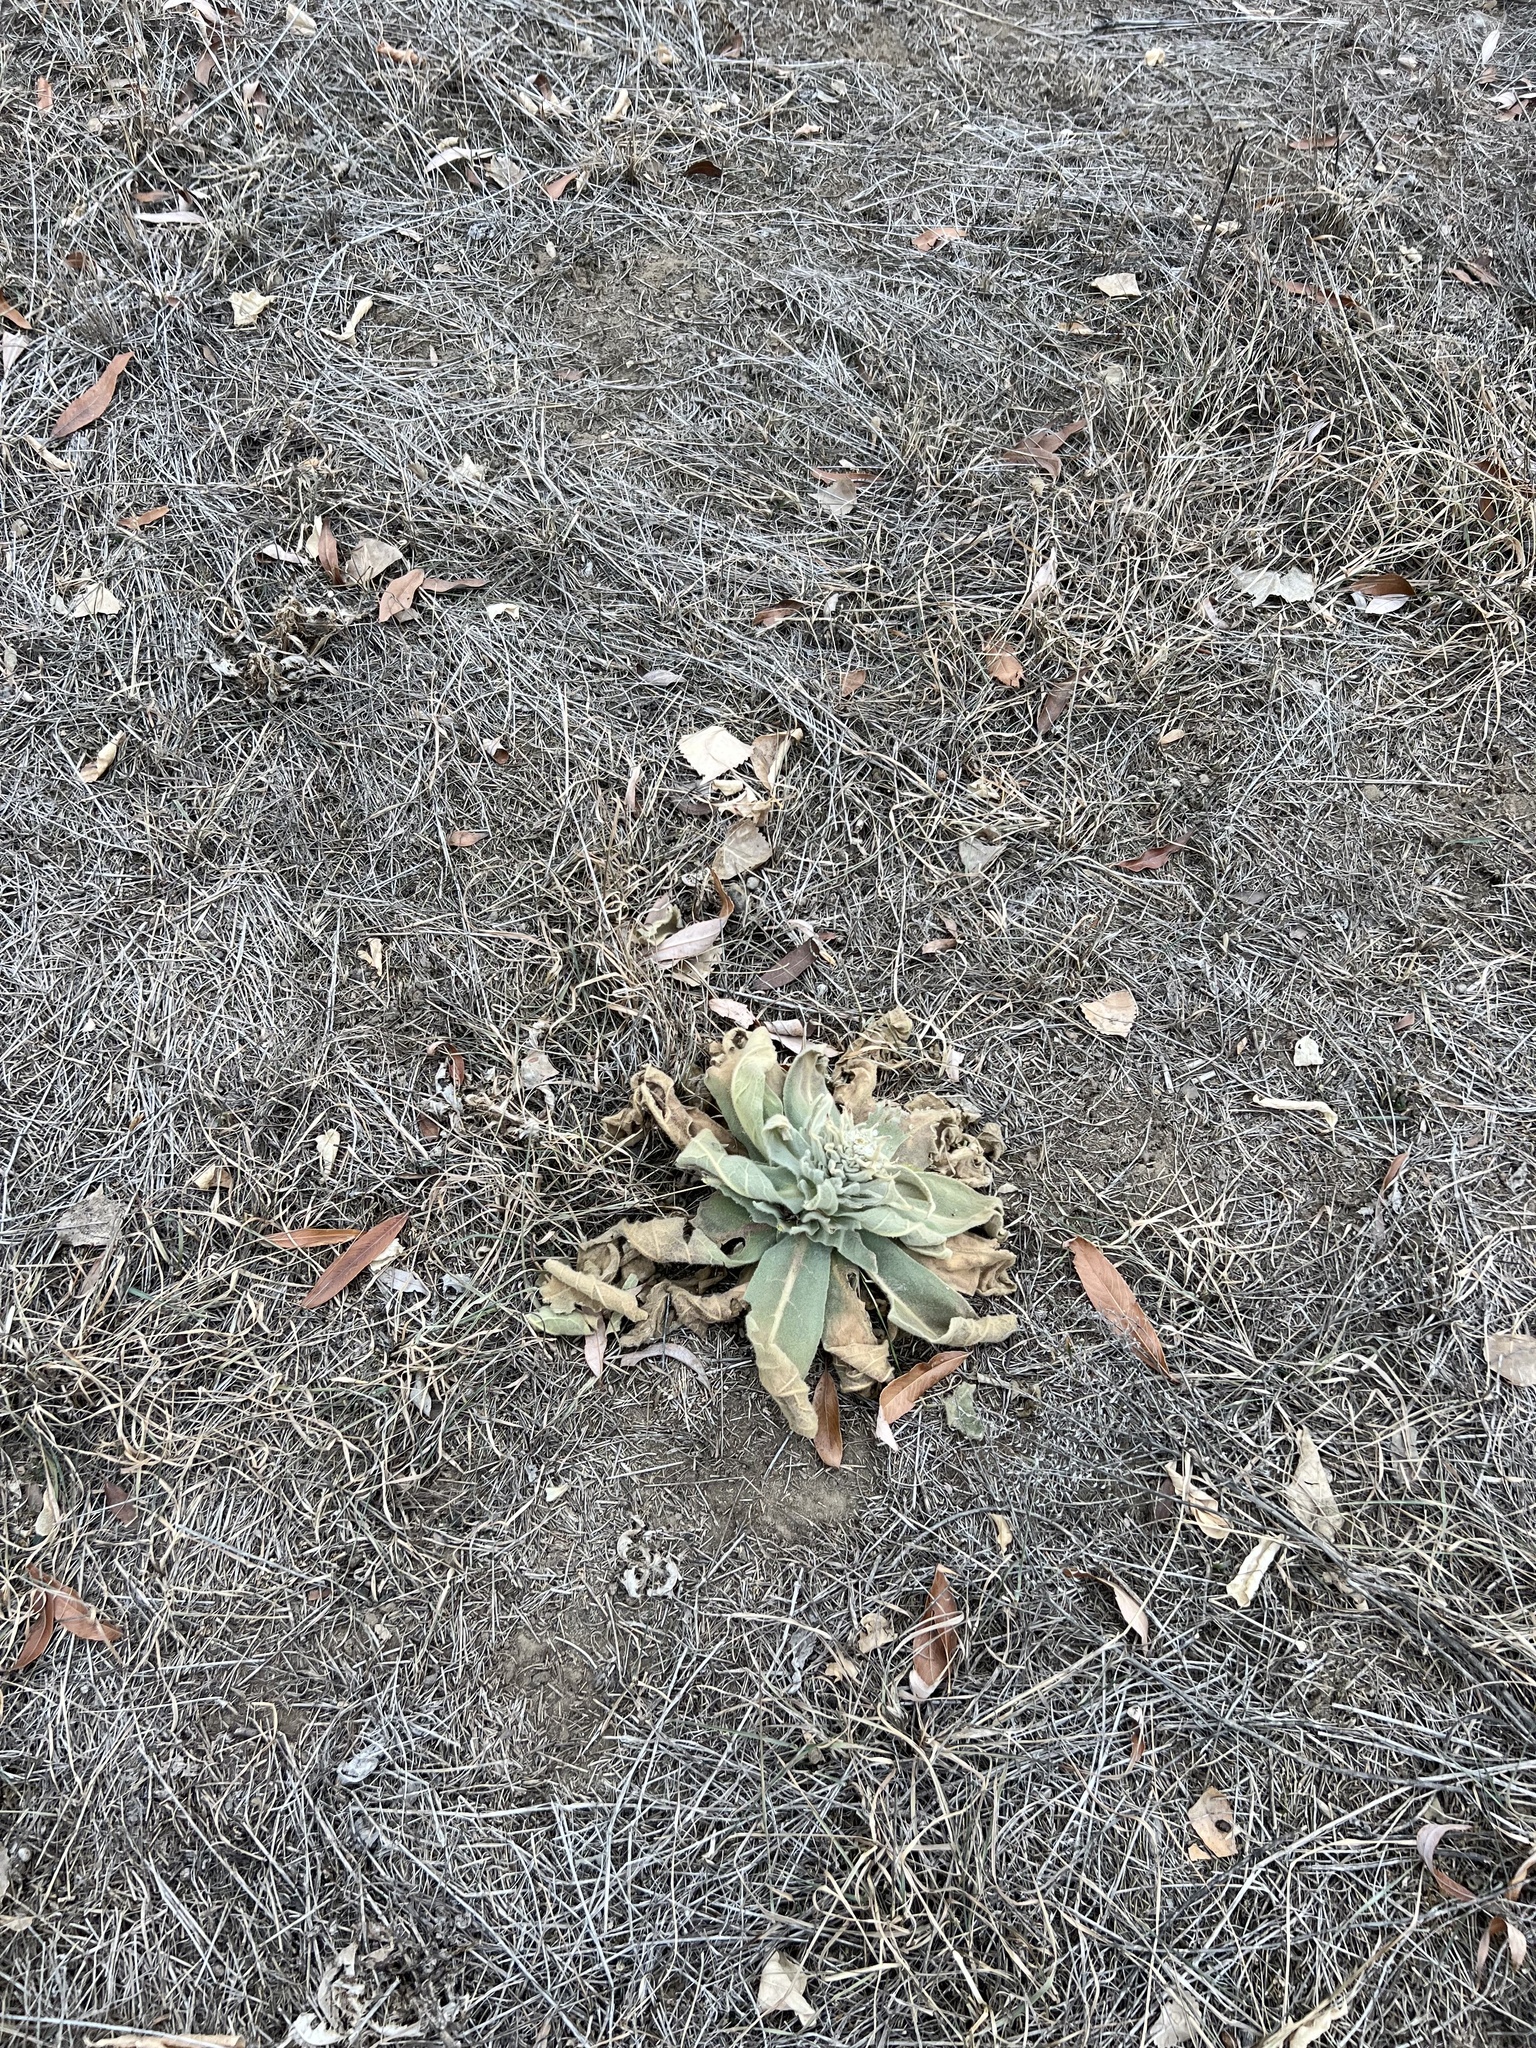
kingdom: Plantae
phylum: Tracheophyta
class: Magnoliopsida
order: Lamiales
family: Scrophulariaceae
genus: Verbascum
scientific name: Verbascum thapsus
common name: Common mullein
